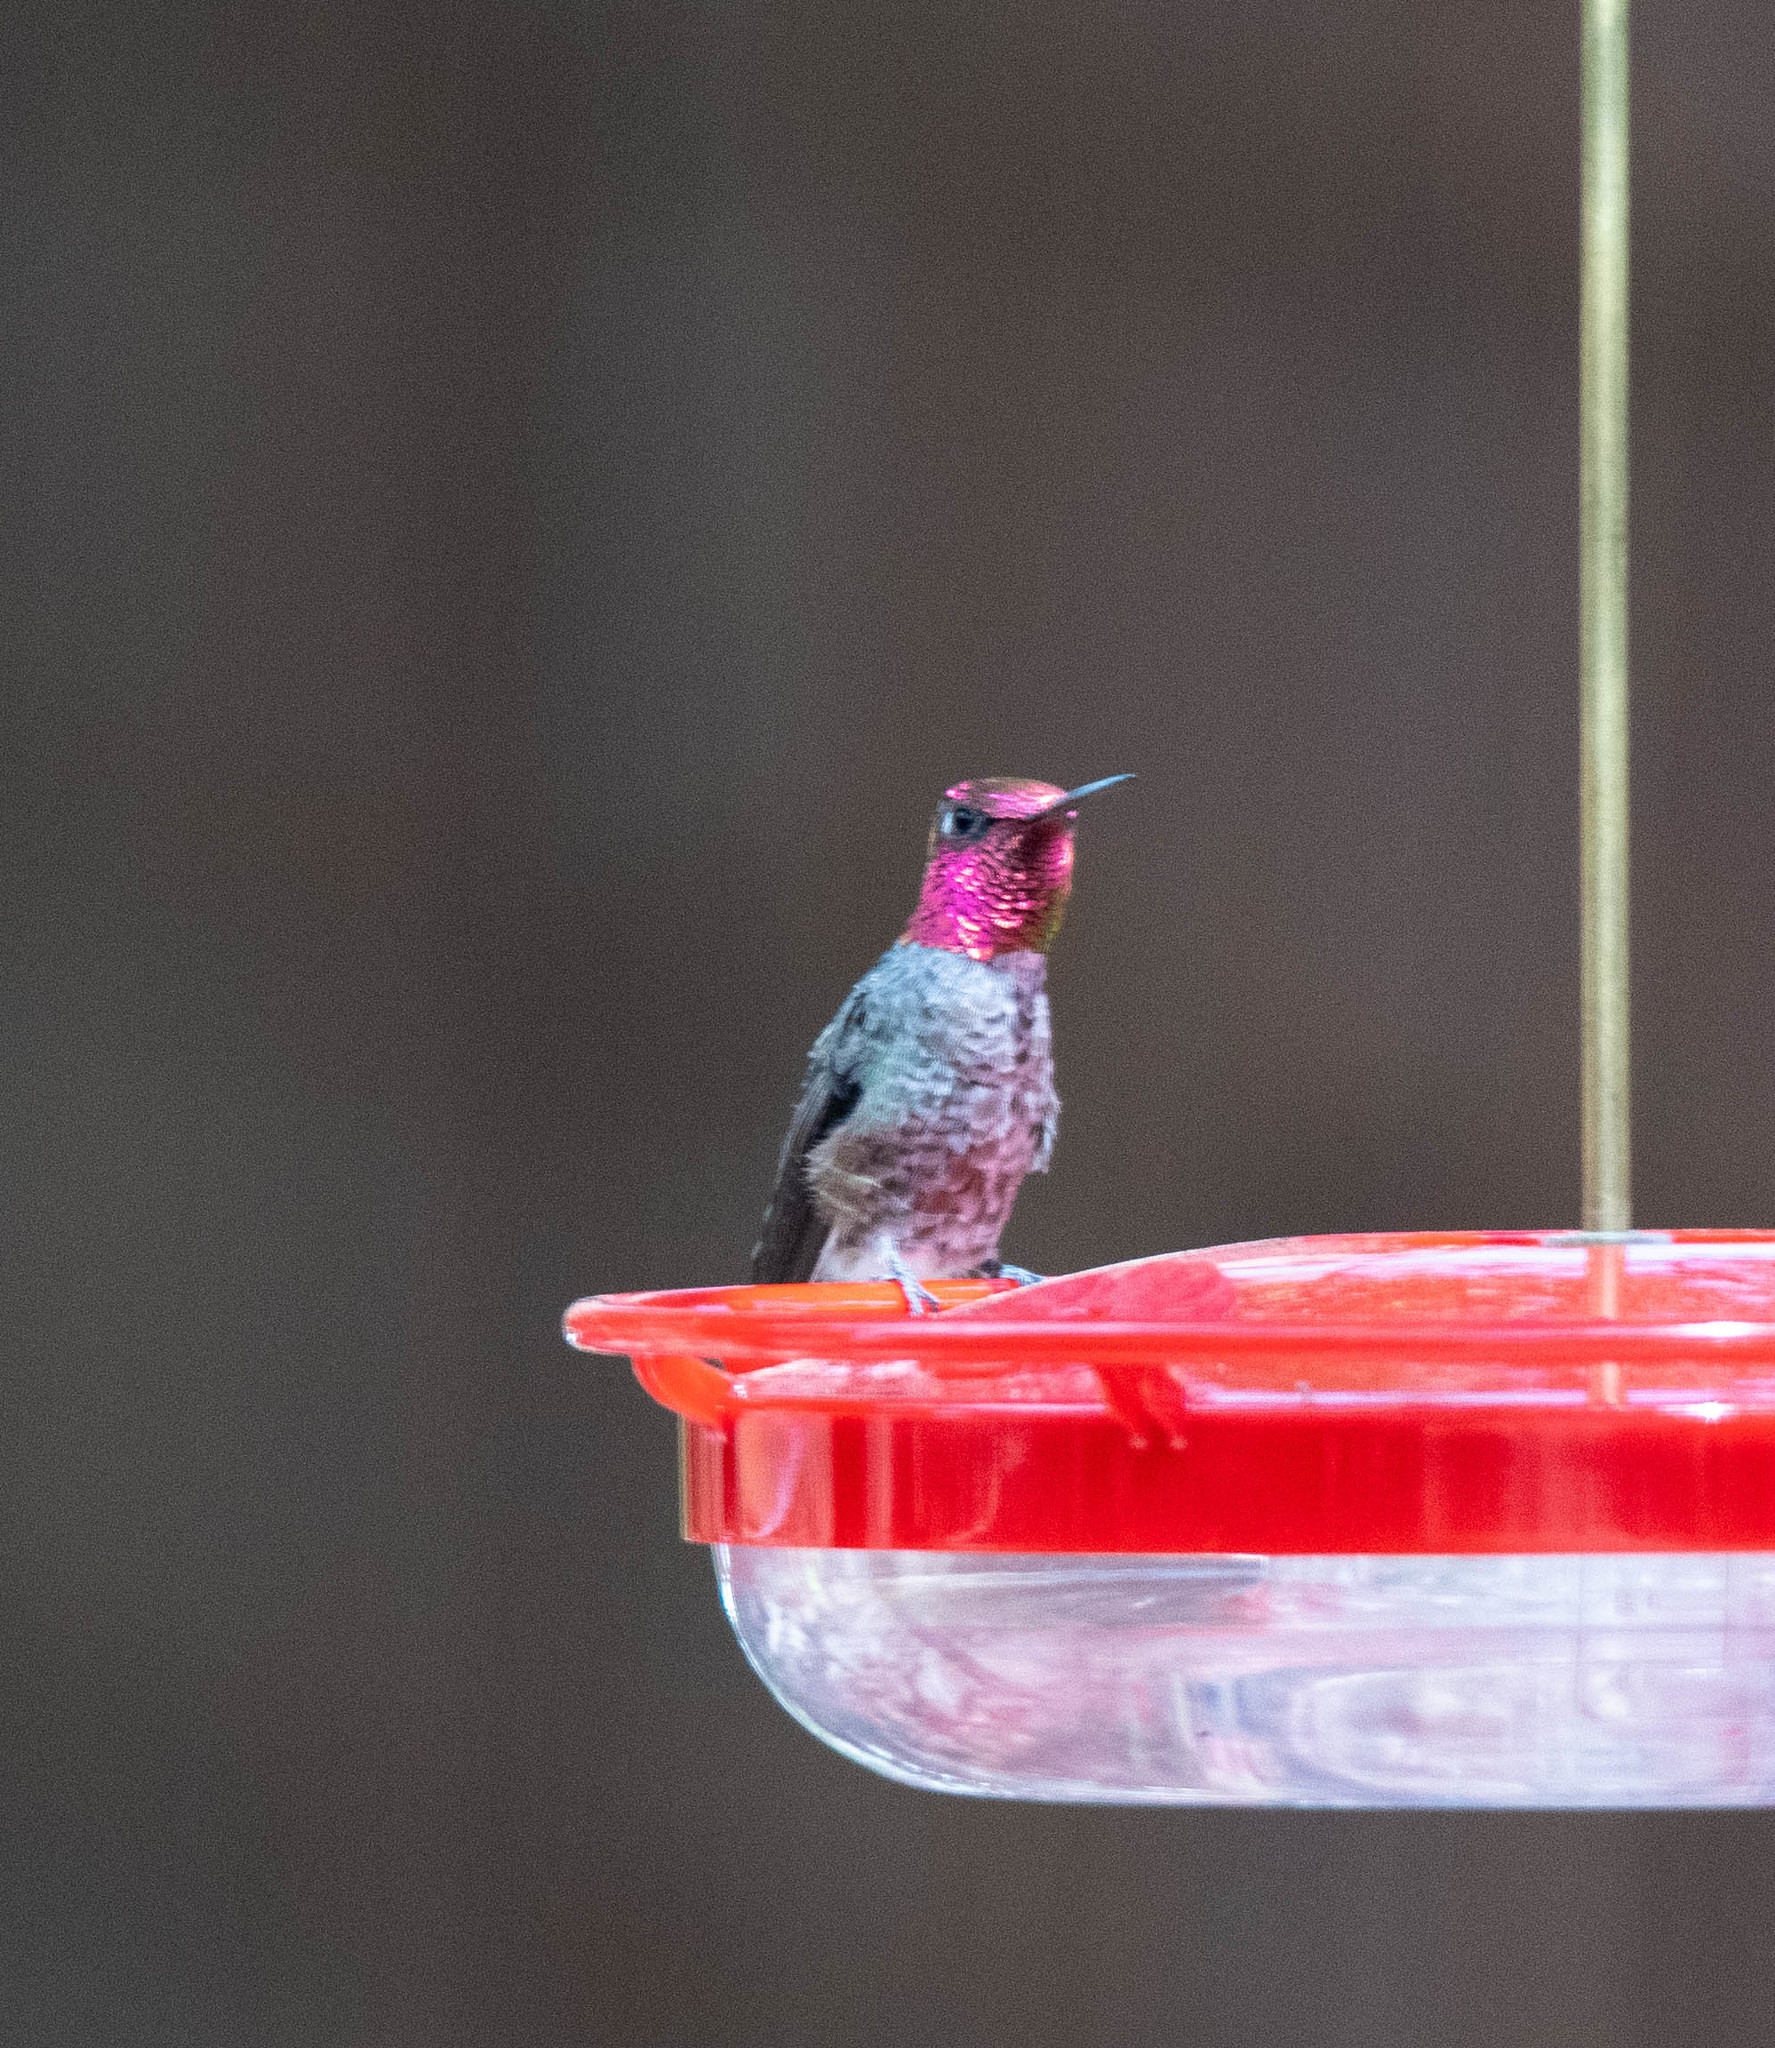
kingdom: Animalia
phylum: Chordata
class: Aves
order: Apodiformes
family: Trochilidae
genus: Calypte
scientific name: Calypte anna
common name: Anna's hummingbird
